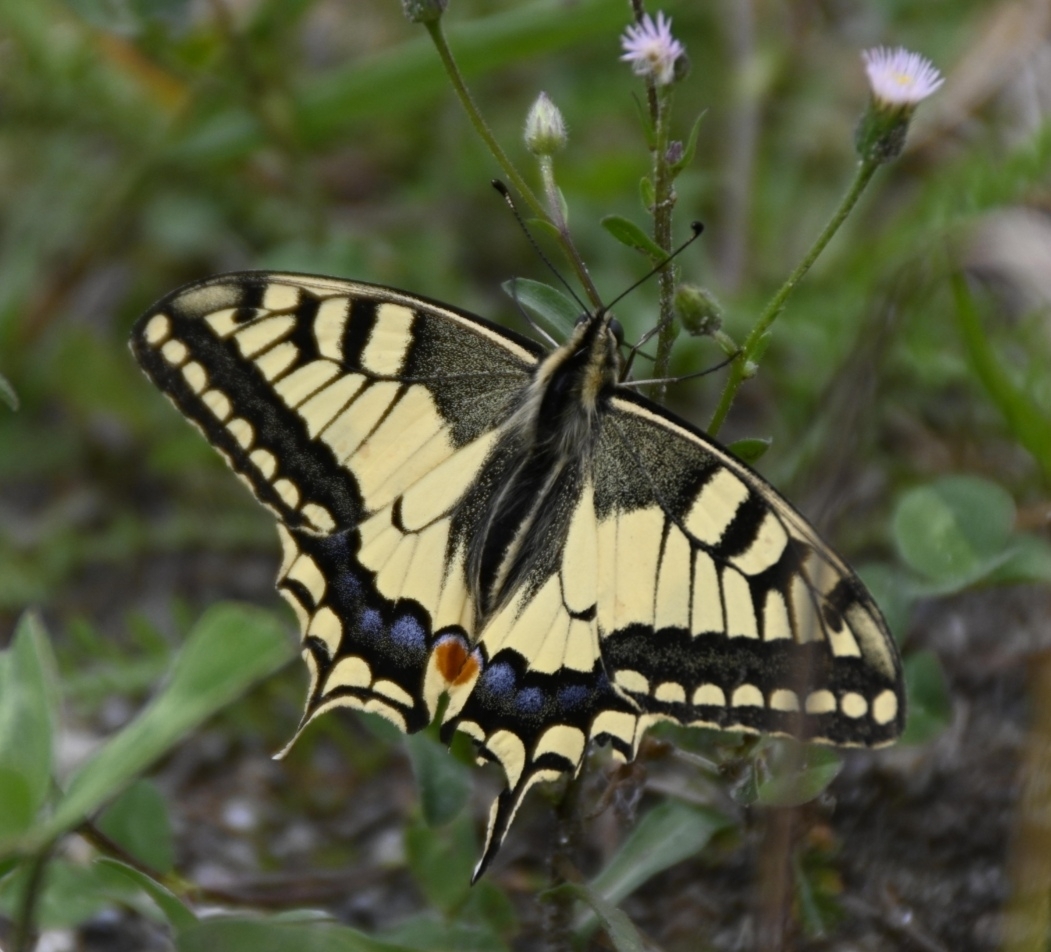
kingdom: Animalia
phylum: Arthropoda
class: Insecta
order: Lepidoptera
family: Papilionidae
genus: Papilio
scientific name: Papilio machaon
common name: Swallowtail
